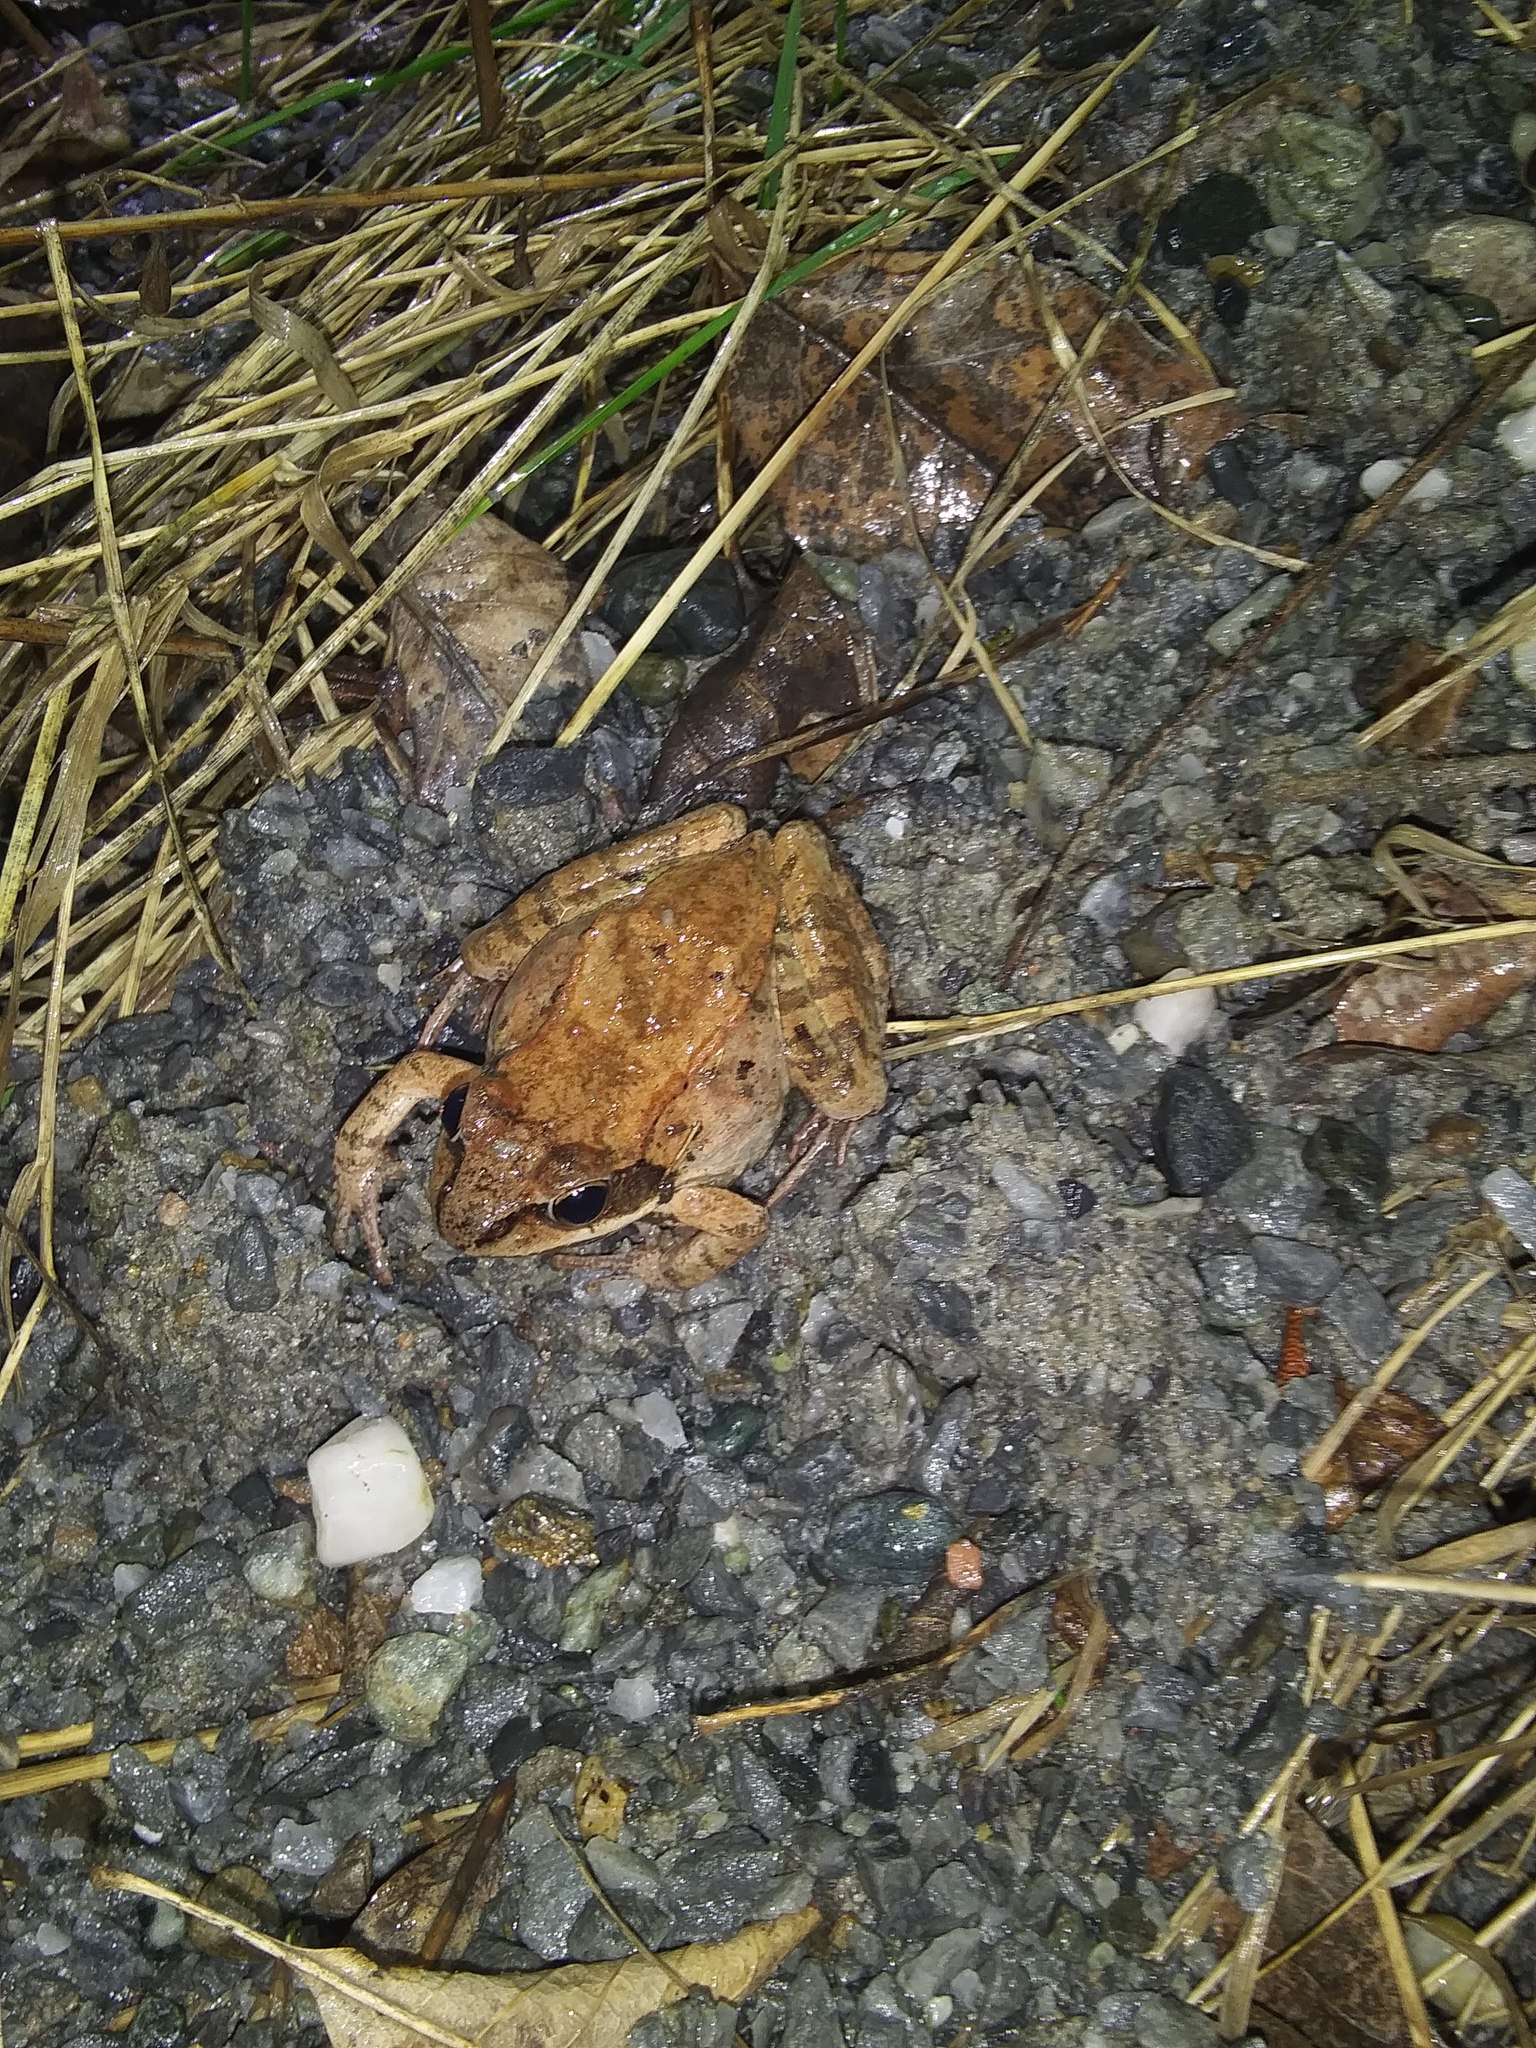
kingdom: Animalia
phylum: Chordata
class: Amphibia
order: Anura
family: Ranidae
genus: Lithobates
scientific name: Lithobates sylvaticus
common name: Wood frog
